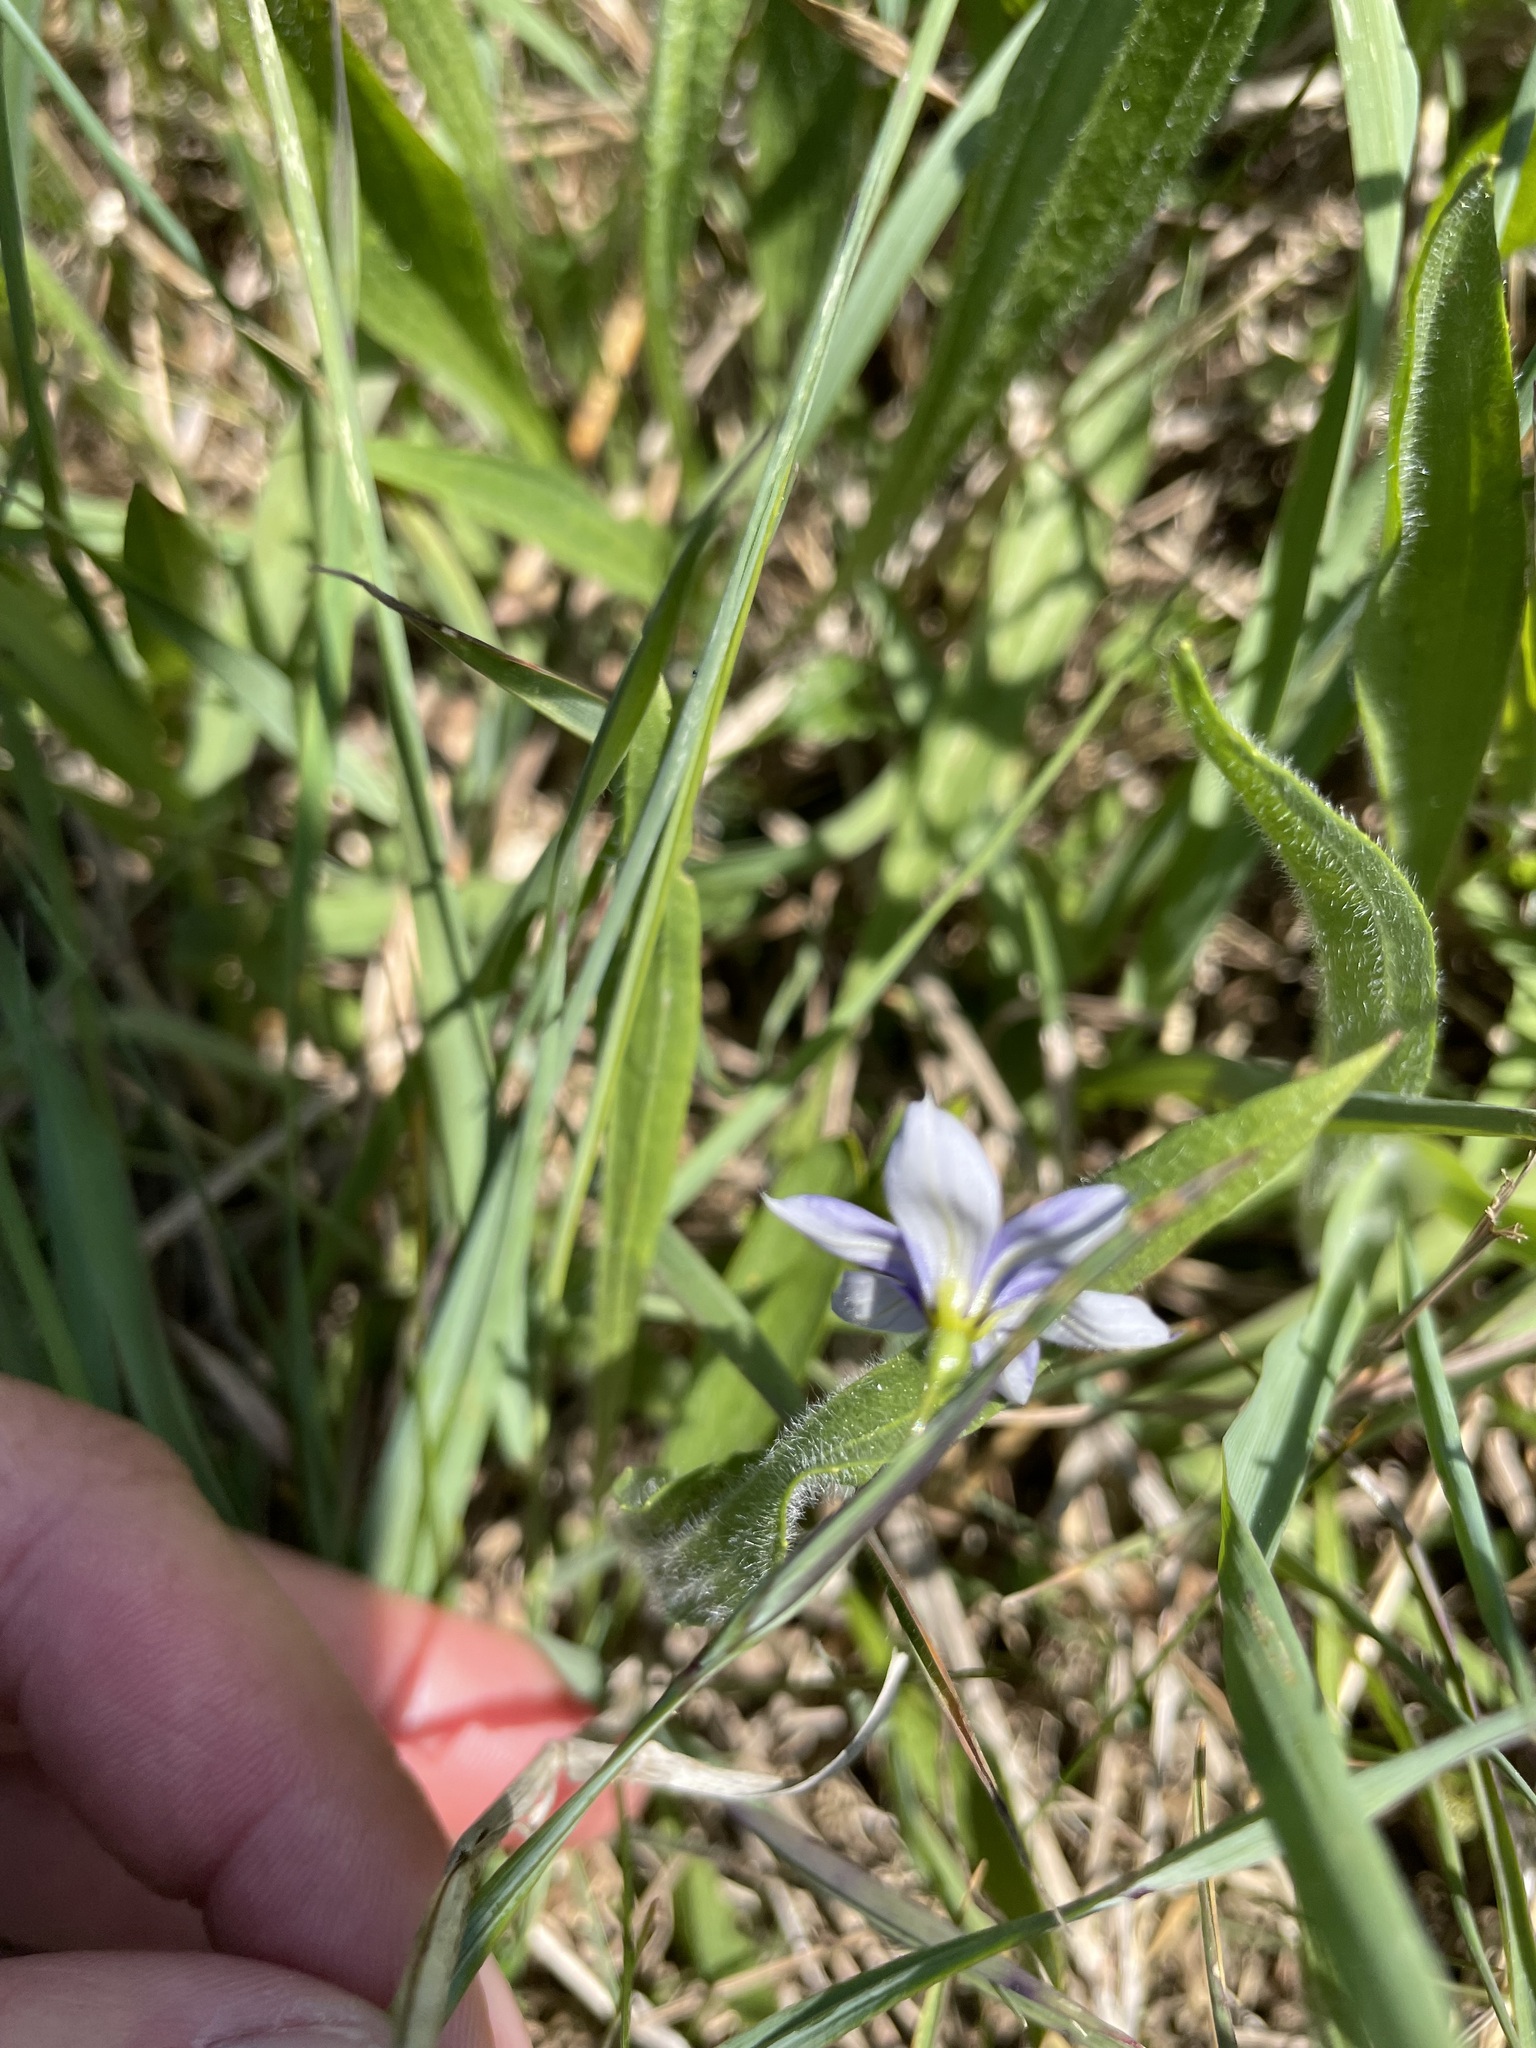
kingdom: Plantae
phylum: Tracheophyta
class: Liliopsida
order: Asparagales
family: Iridaceae
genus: Sisyrinchium
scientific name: Sisyrinchium montanum
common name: American blue-eyed-grass
